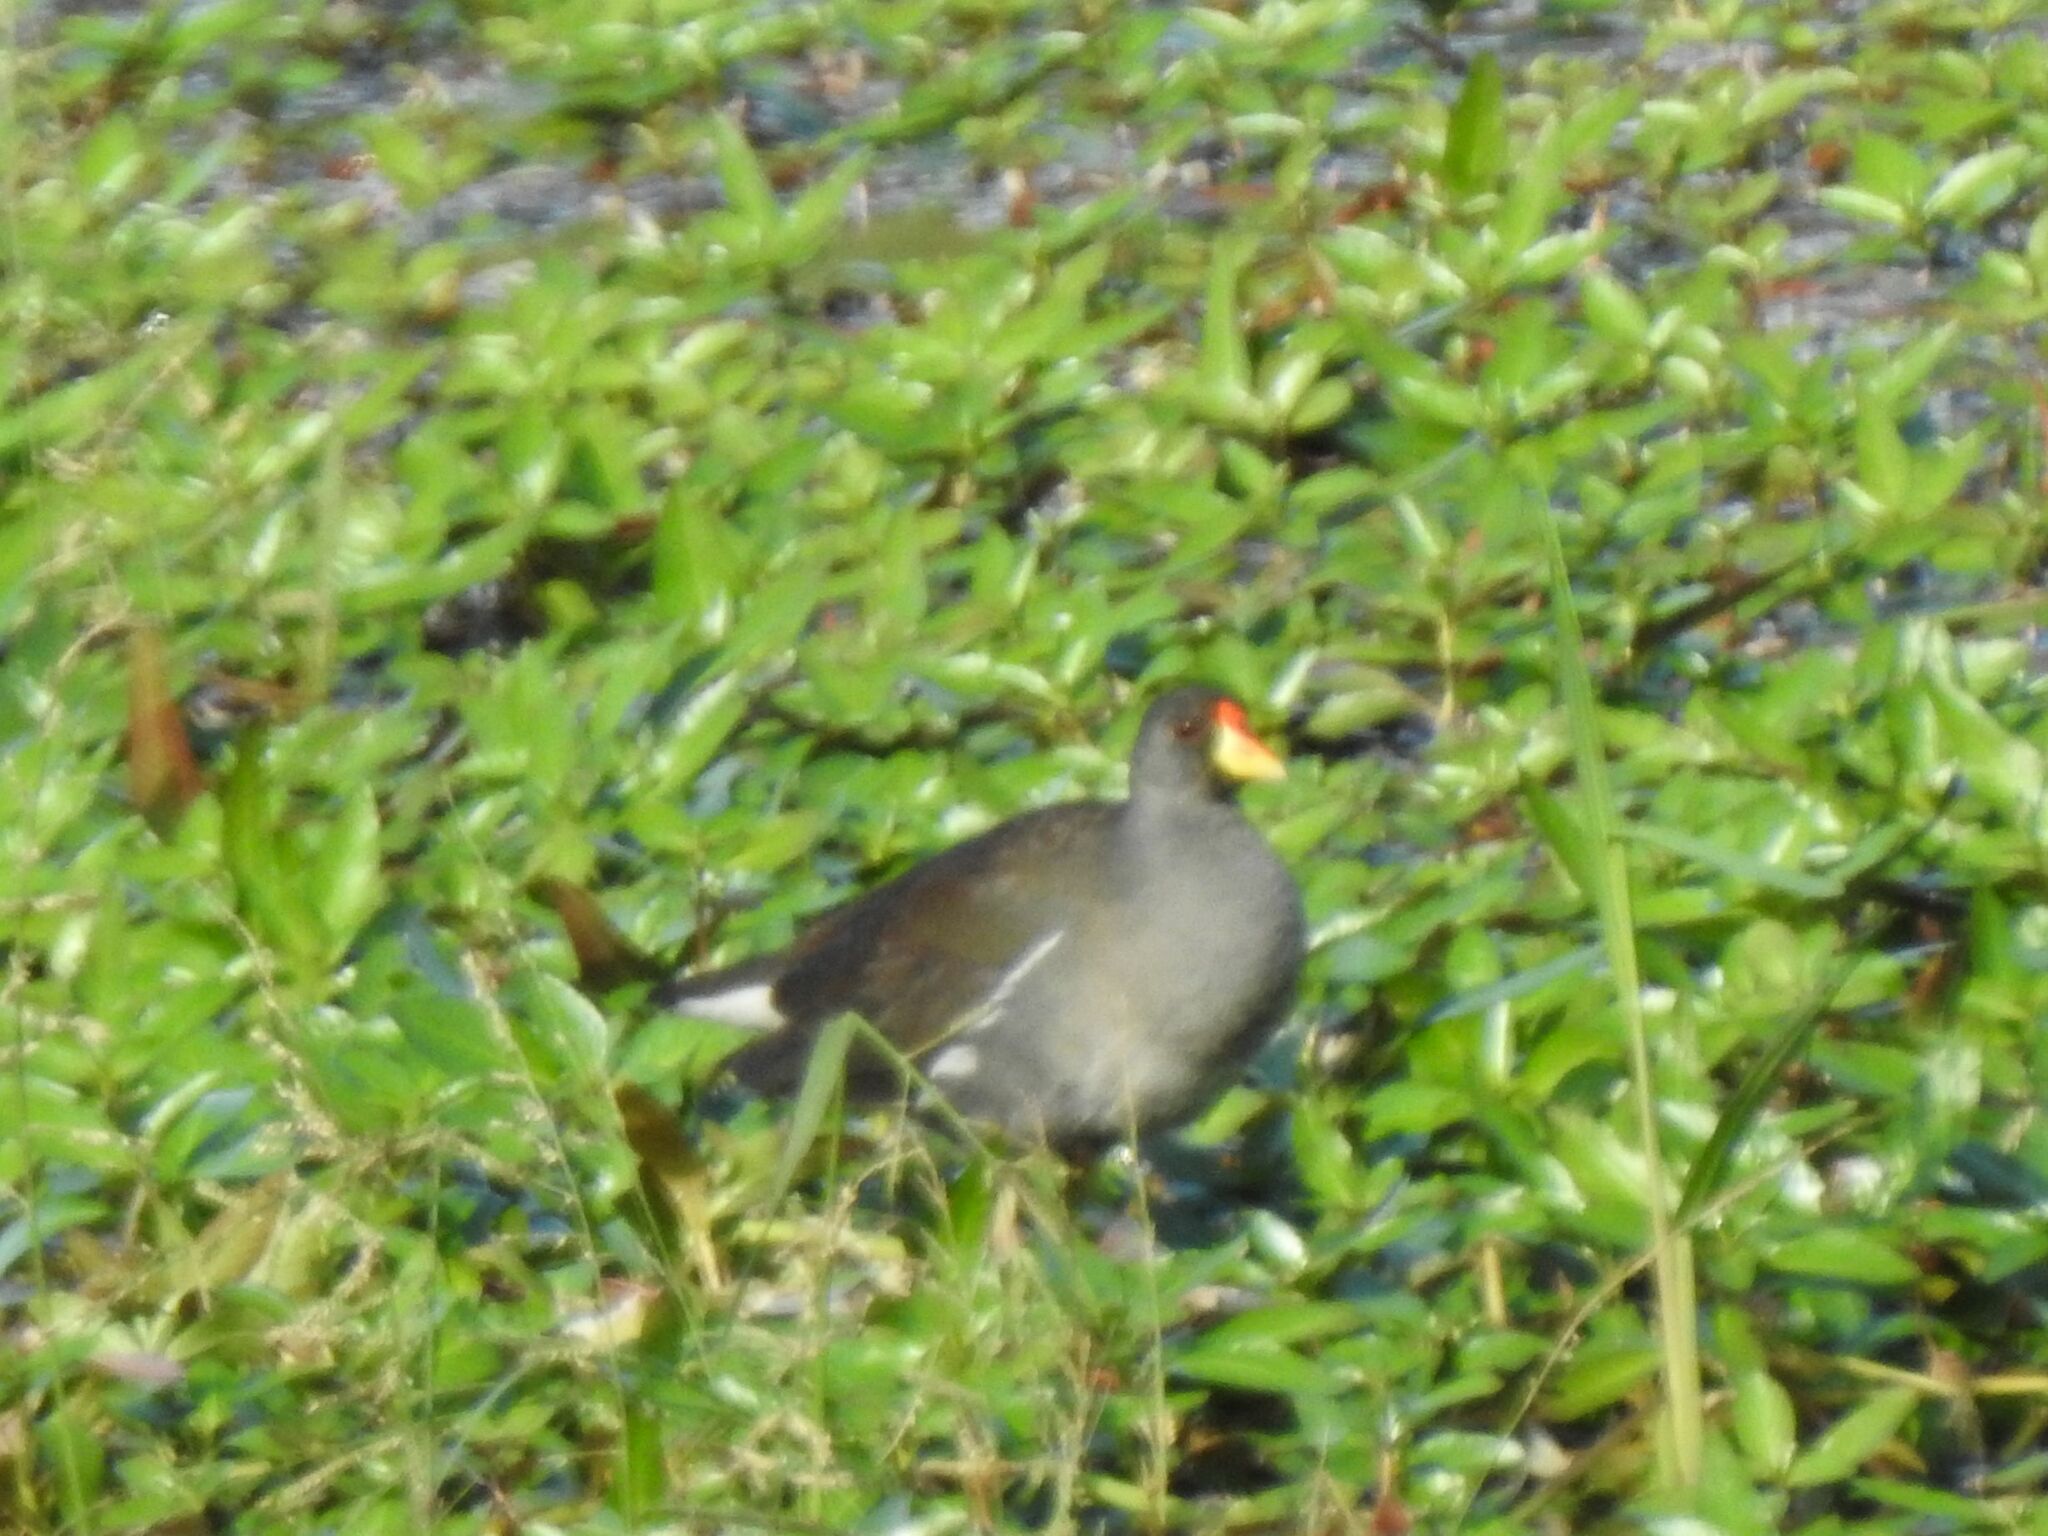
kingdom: Animalia
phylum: Chordata
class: Aves
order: Gruiformes
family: Rallidae
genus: Gallinula
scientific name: Gallinula angulata
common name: Lesser moorhen
